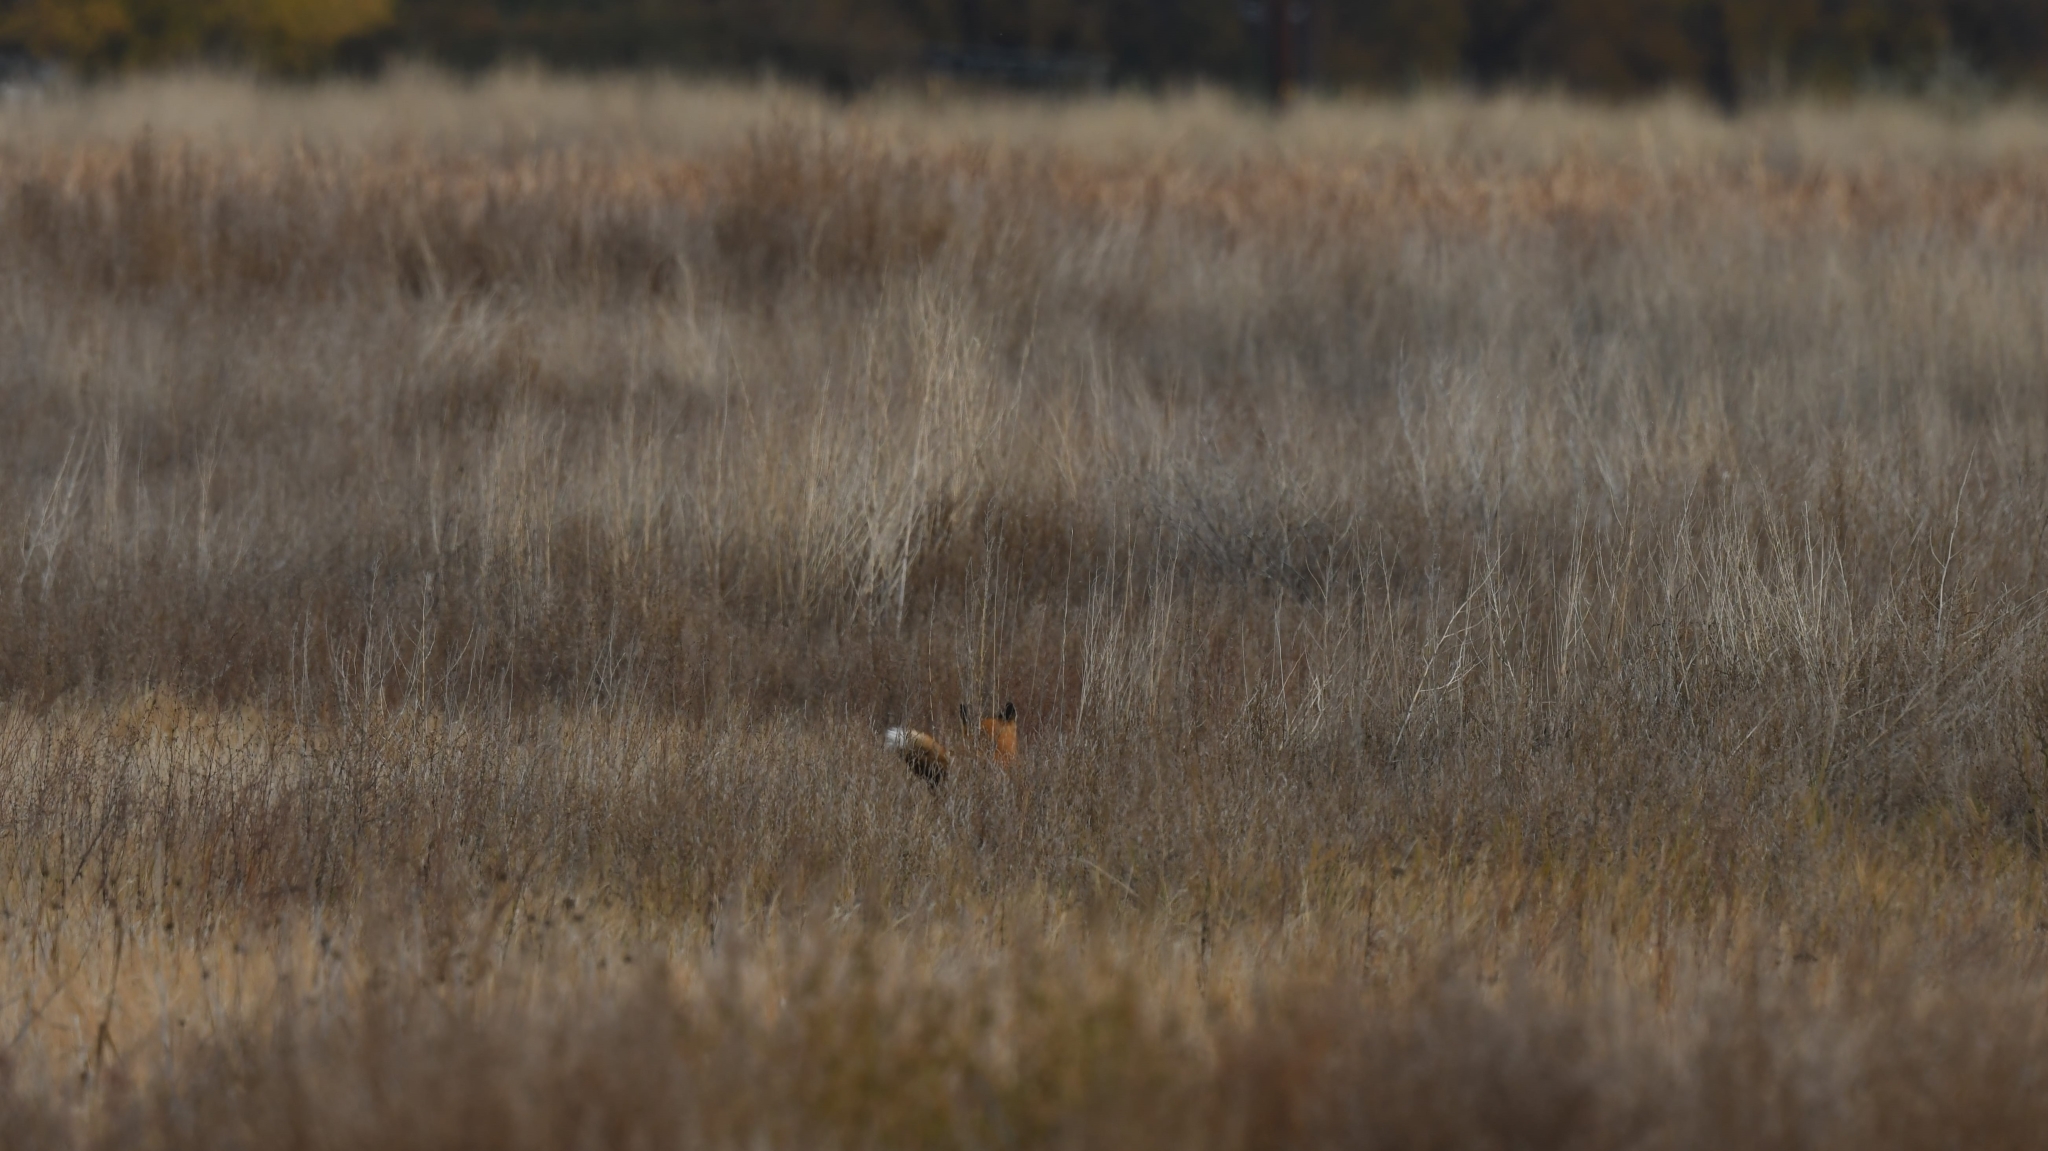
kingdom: Animalia
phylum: Chordata
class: Mammalia
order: Carnivora
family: Canidae
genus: Vulpes
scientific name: Vulpes vulpes
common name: Red fox
